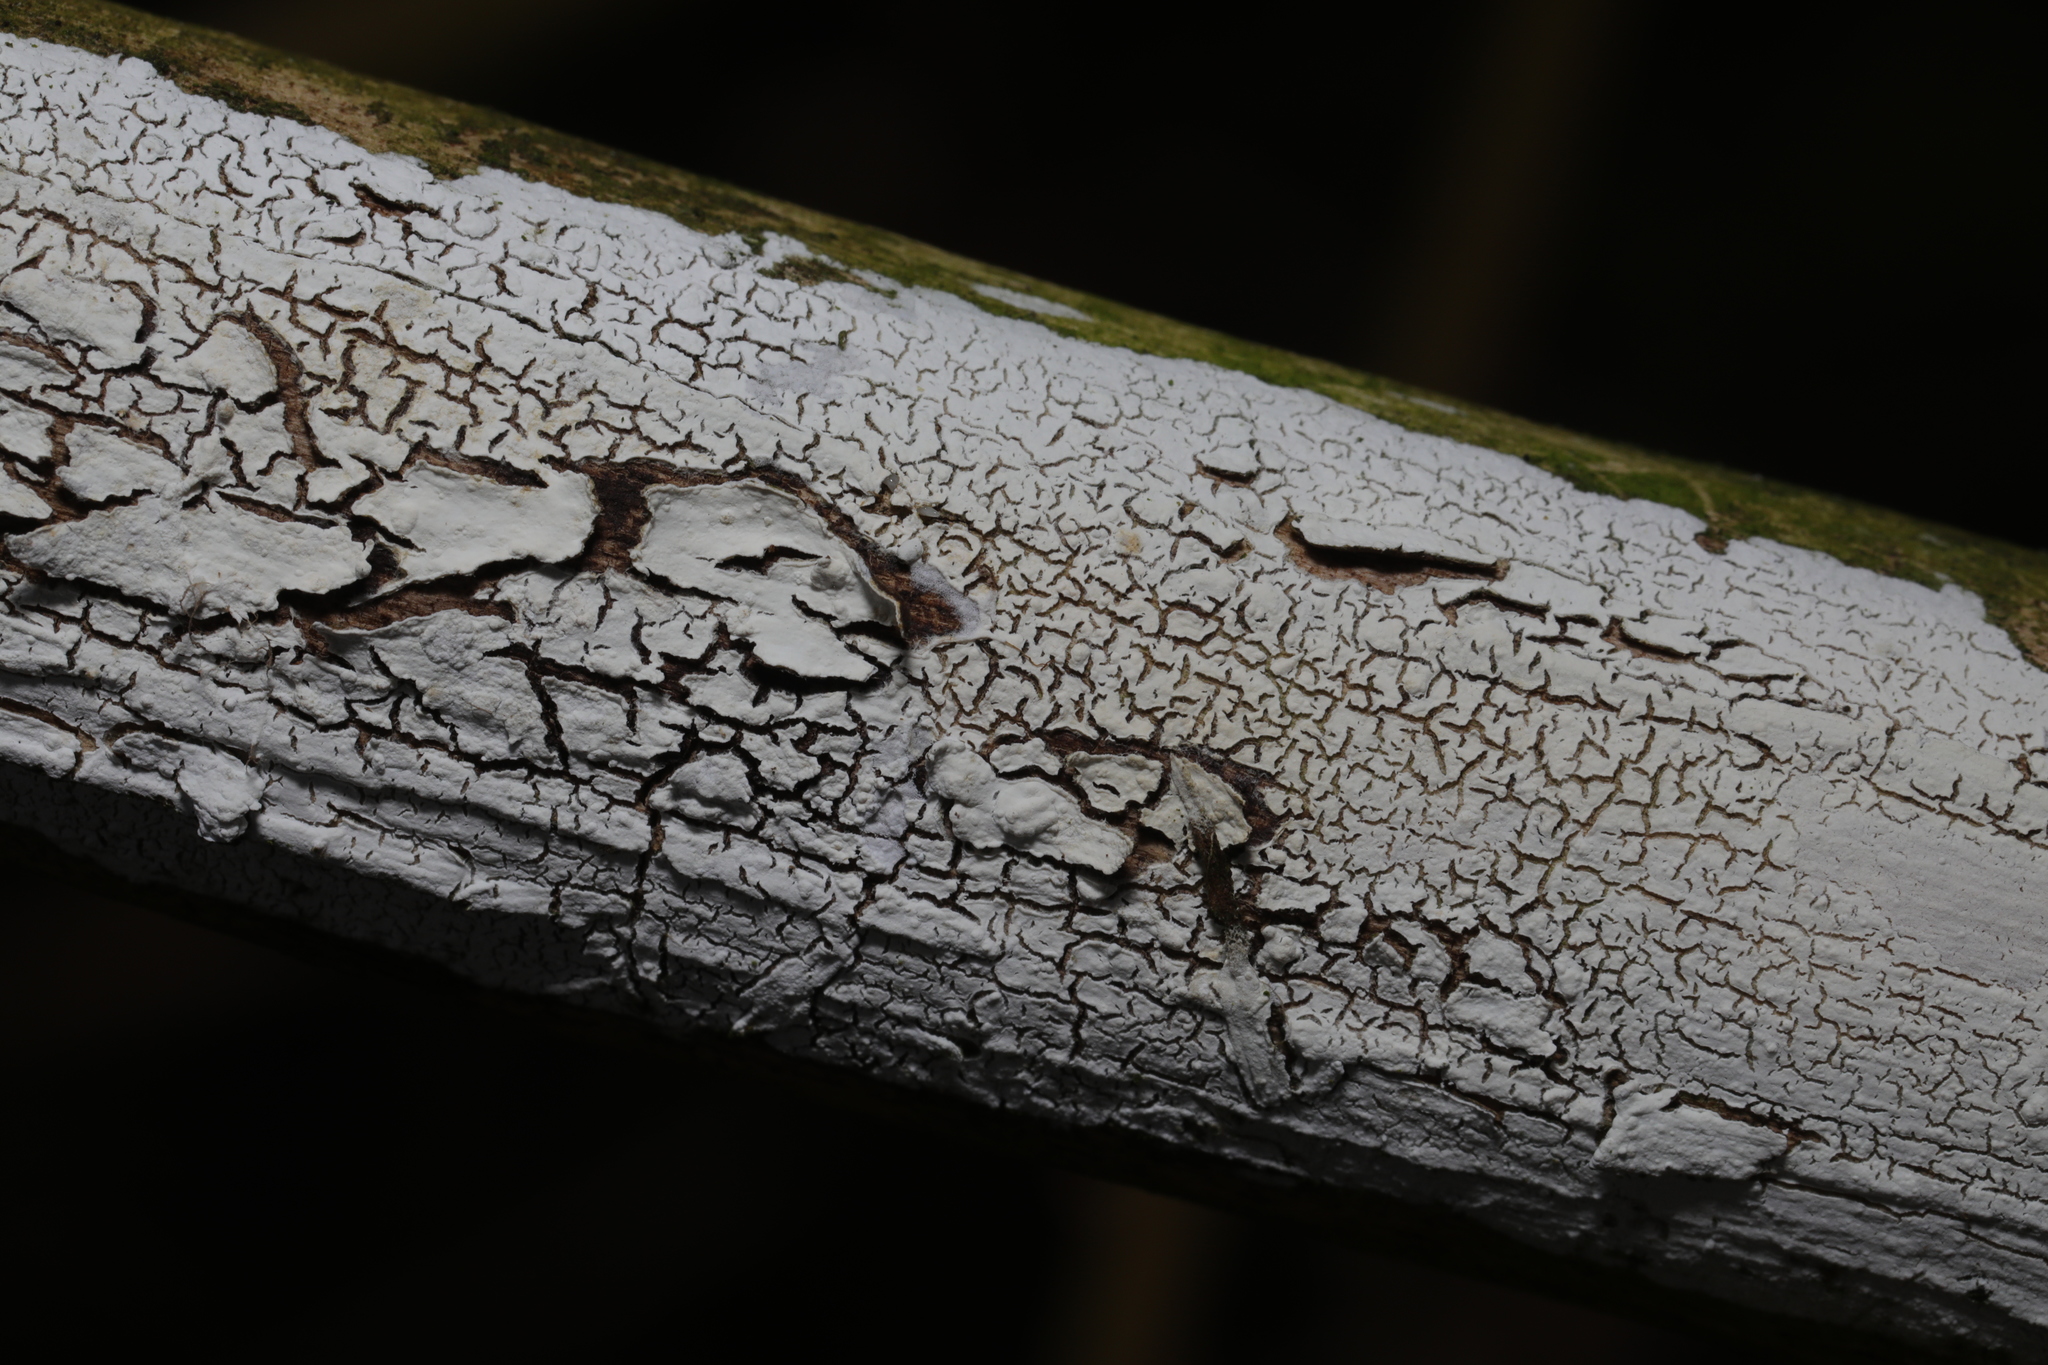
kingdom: Fungi
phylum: Basidiomycota
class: Agaricomycetes
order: Corticiales
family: Corticiaceae
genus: Lyomyces
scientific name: Lyomyces sambuci
